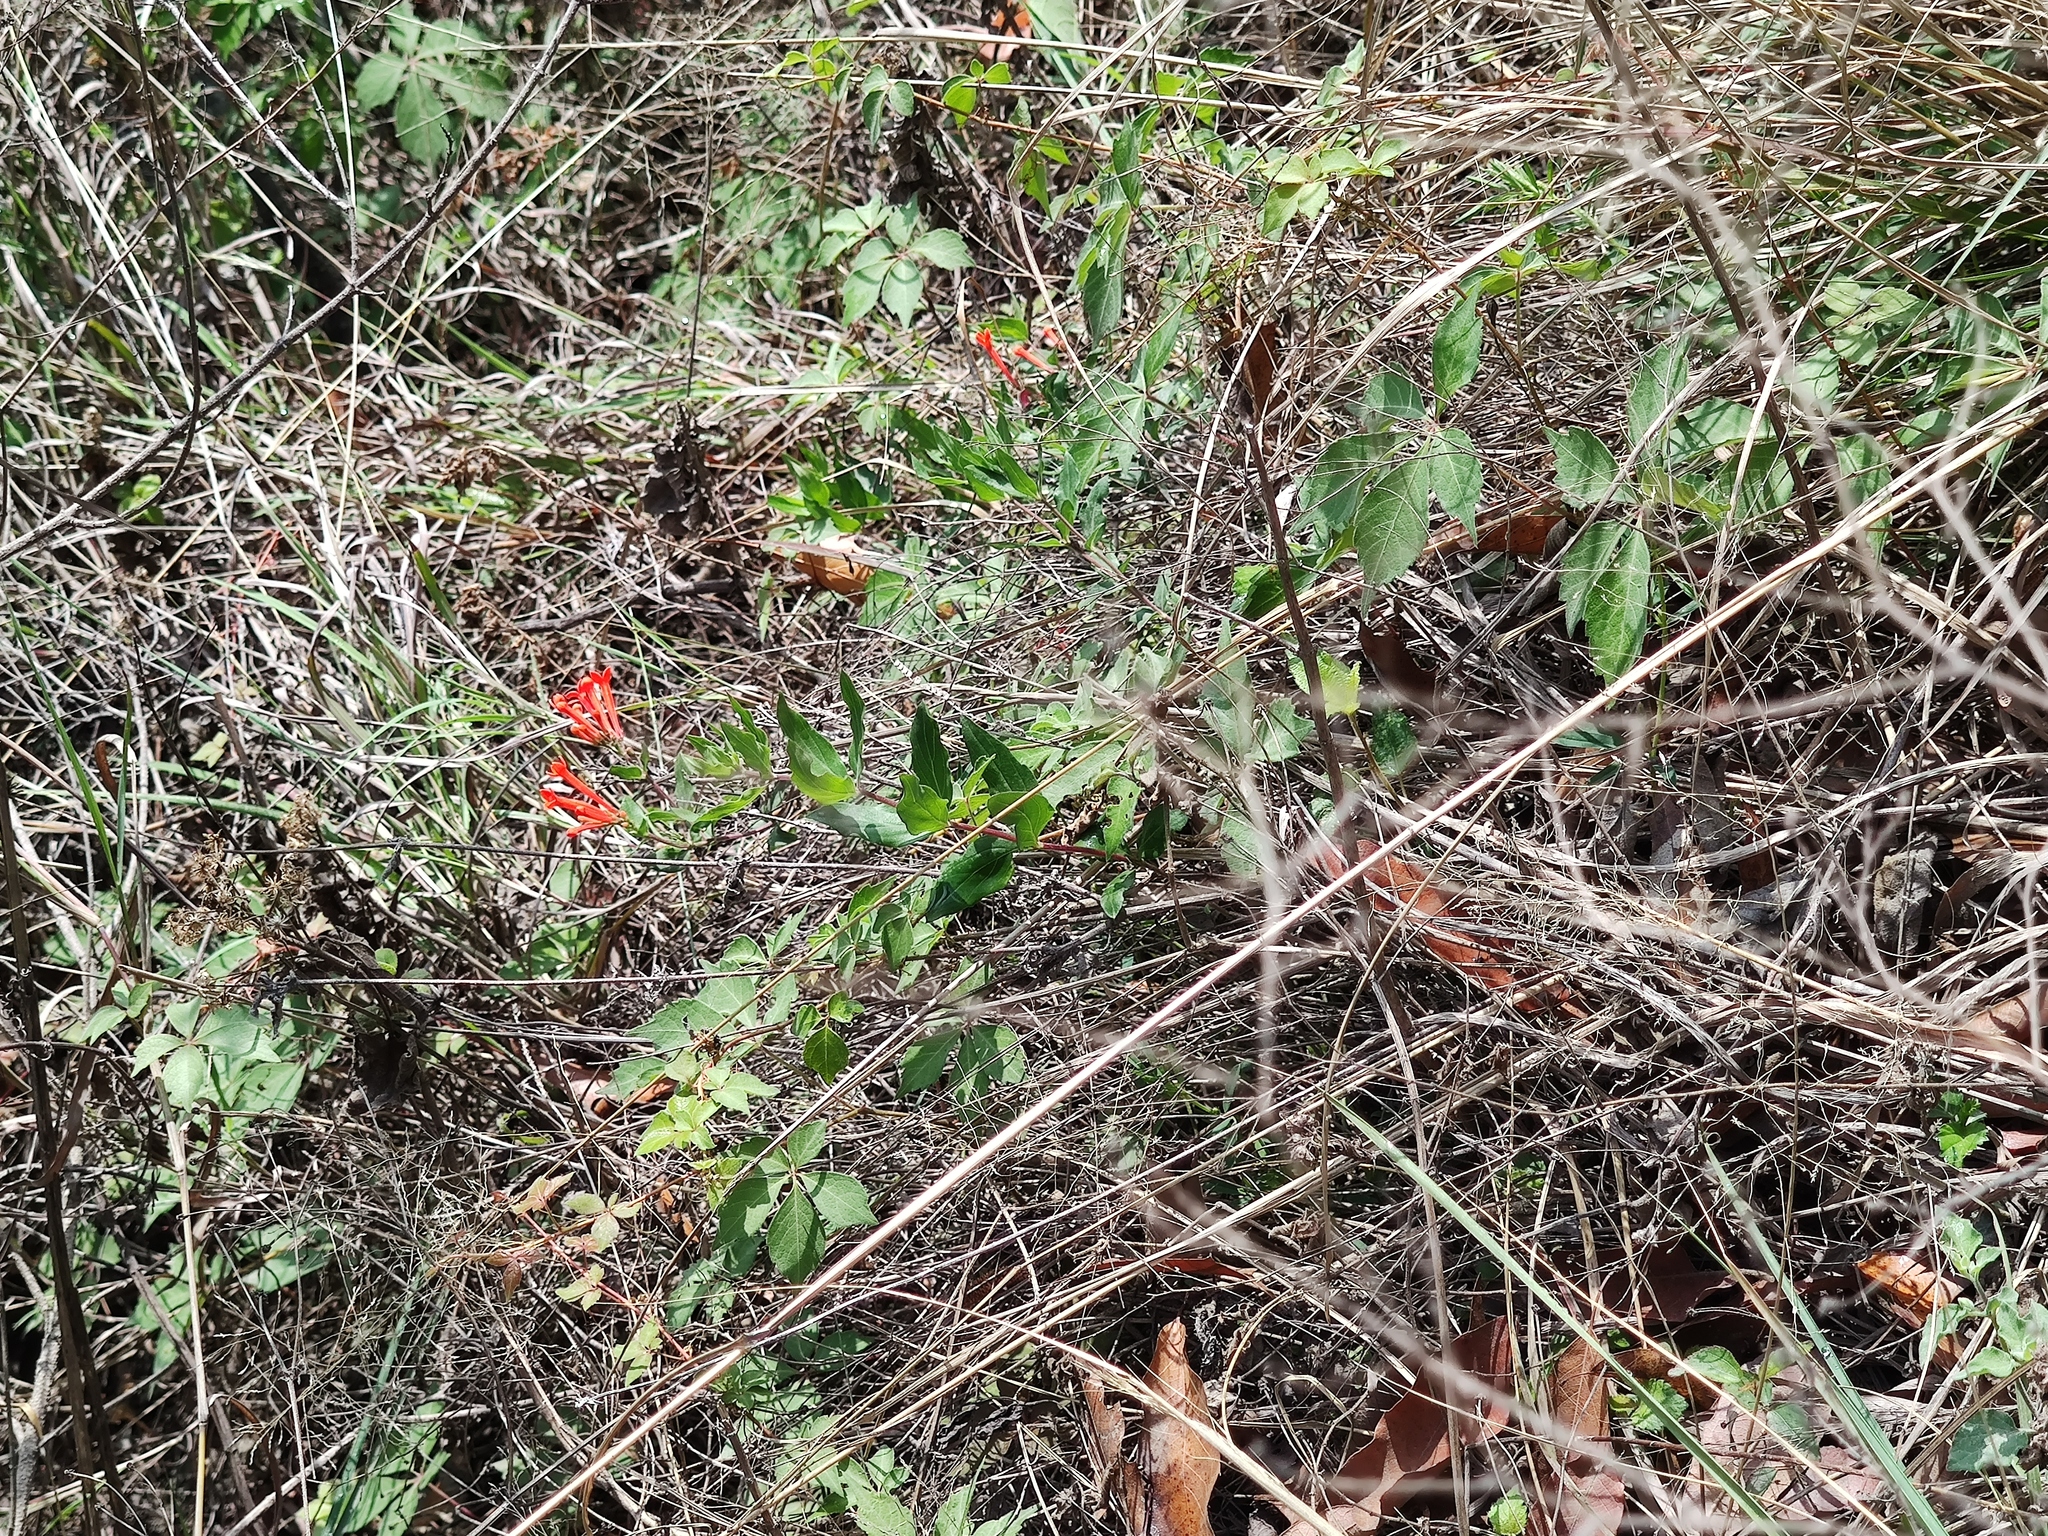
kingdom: Plantae
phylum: Tracheophyta
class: Magnoliopsida
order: Gentianales
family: Rubiaceae
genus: Bouvardia
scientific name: Bouvardia ternifolia
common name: Scarlet bouvardia
